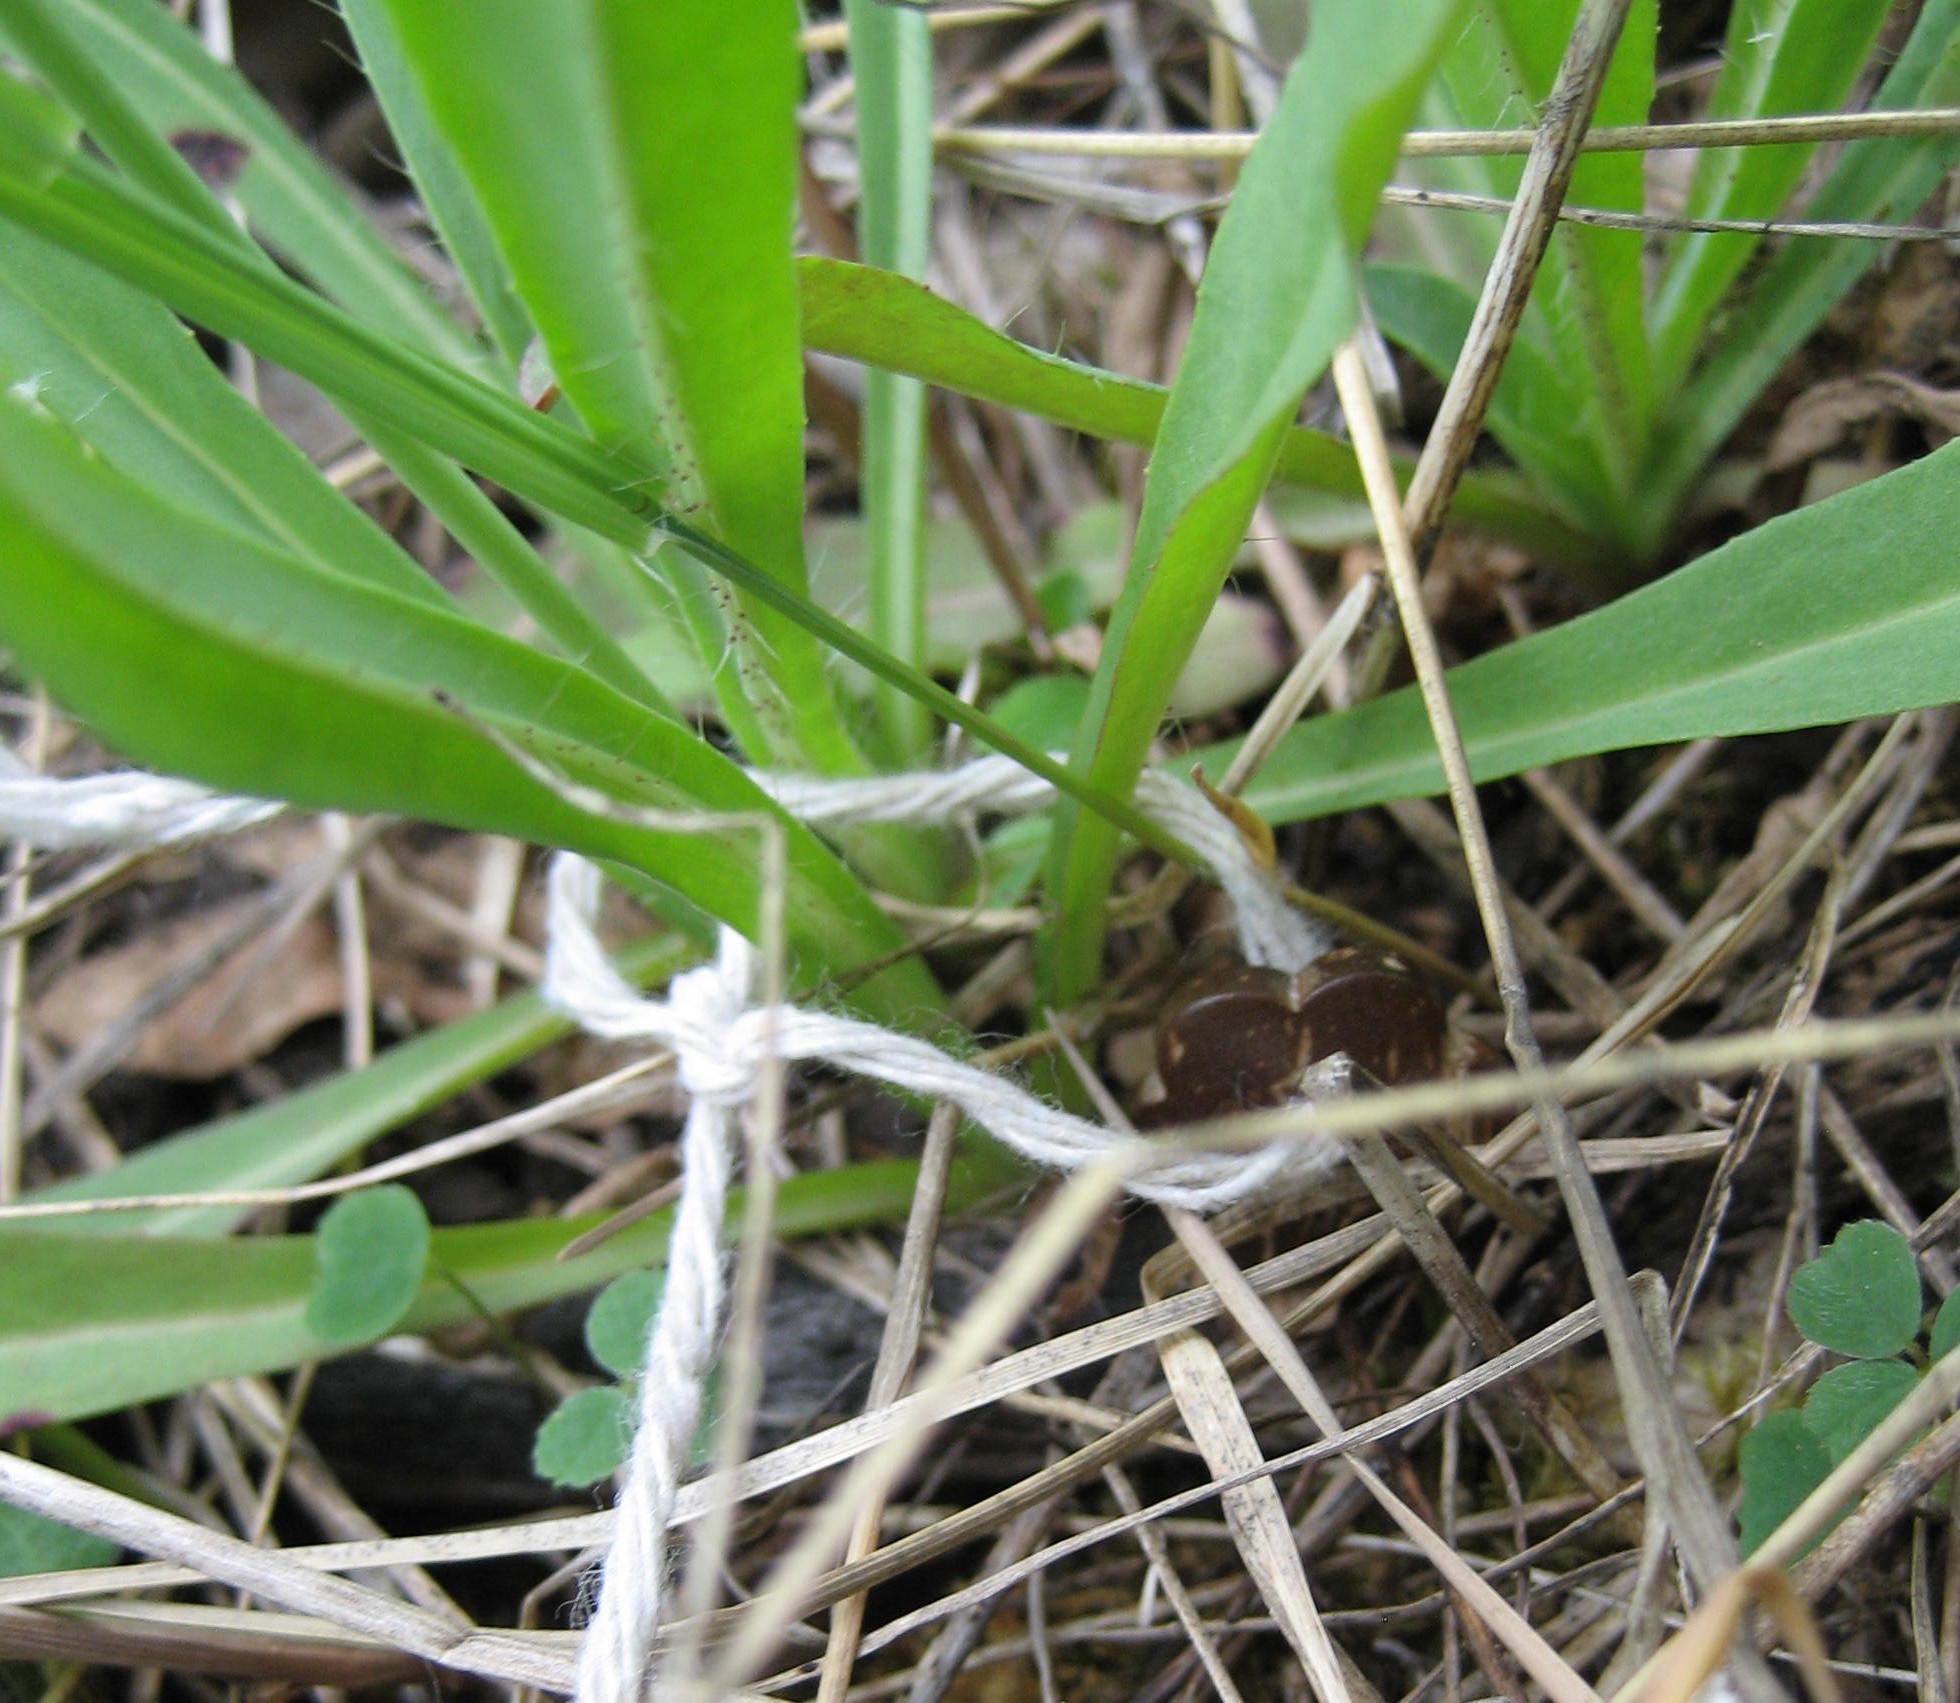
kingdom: Plantae
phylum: Tracheophyta
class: Magnoliopsida
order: Asterales
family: Asteraceae
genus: Pilosella
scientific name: Pilosella piloselloides
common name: Glaucous king-devil
